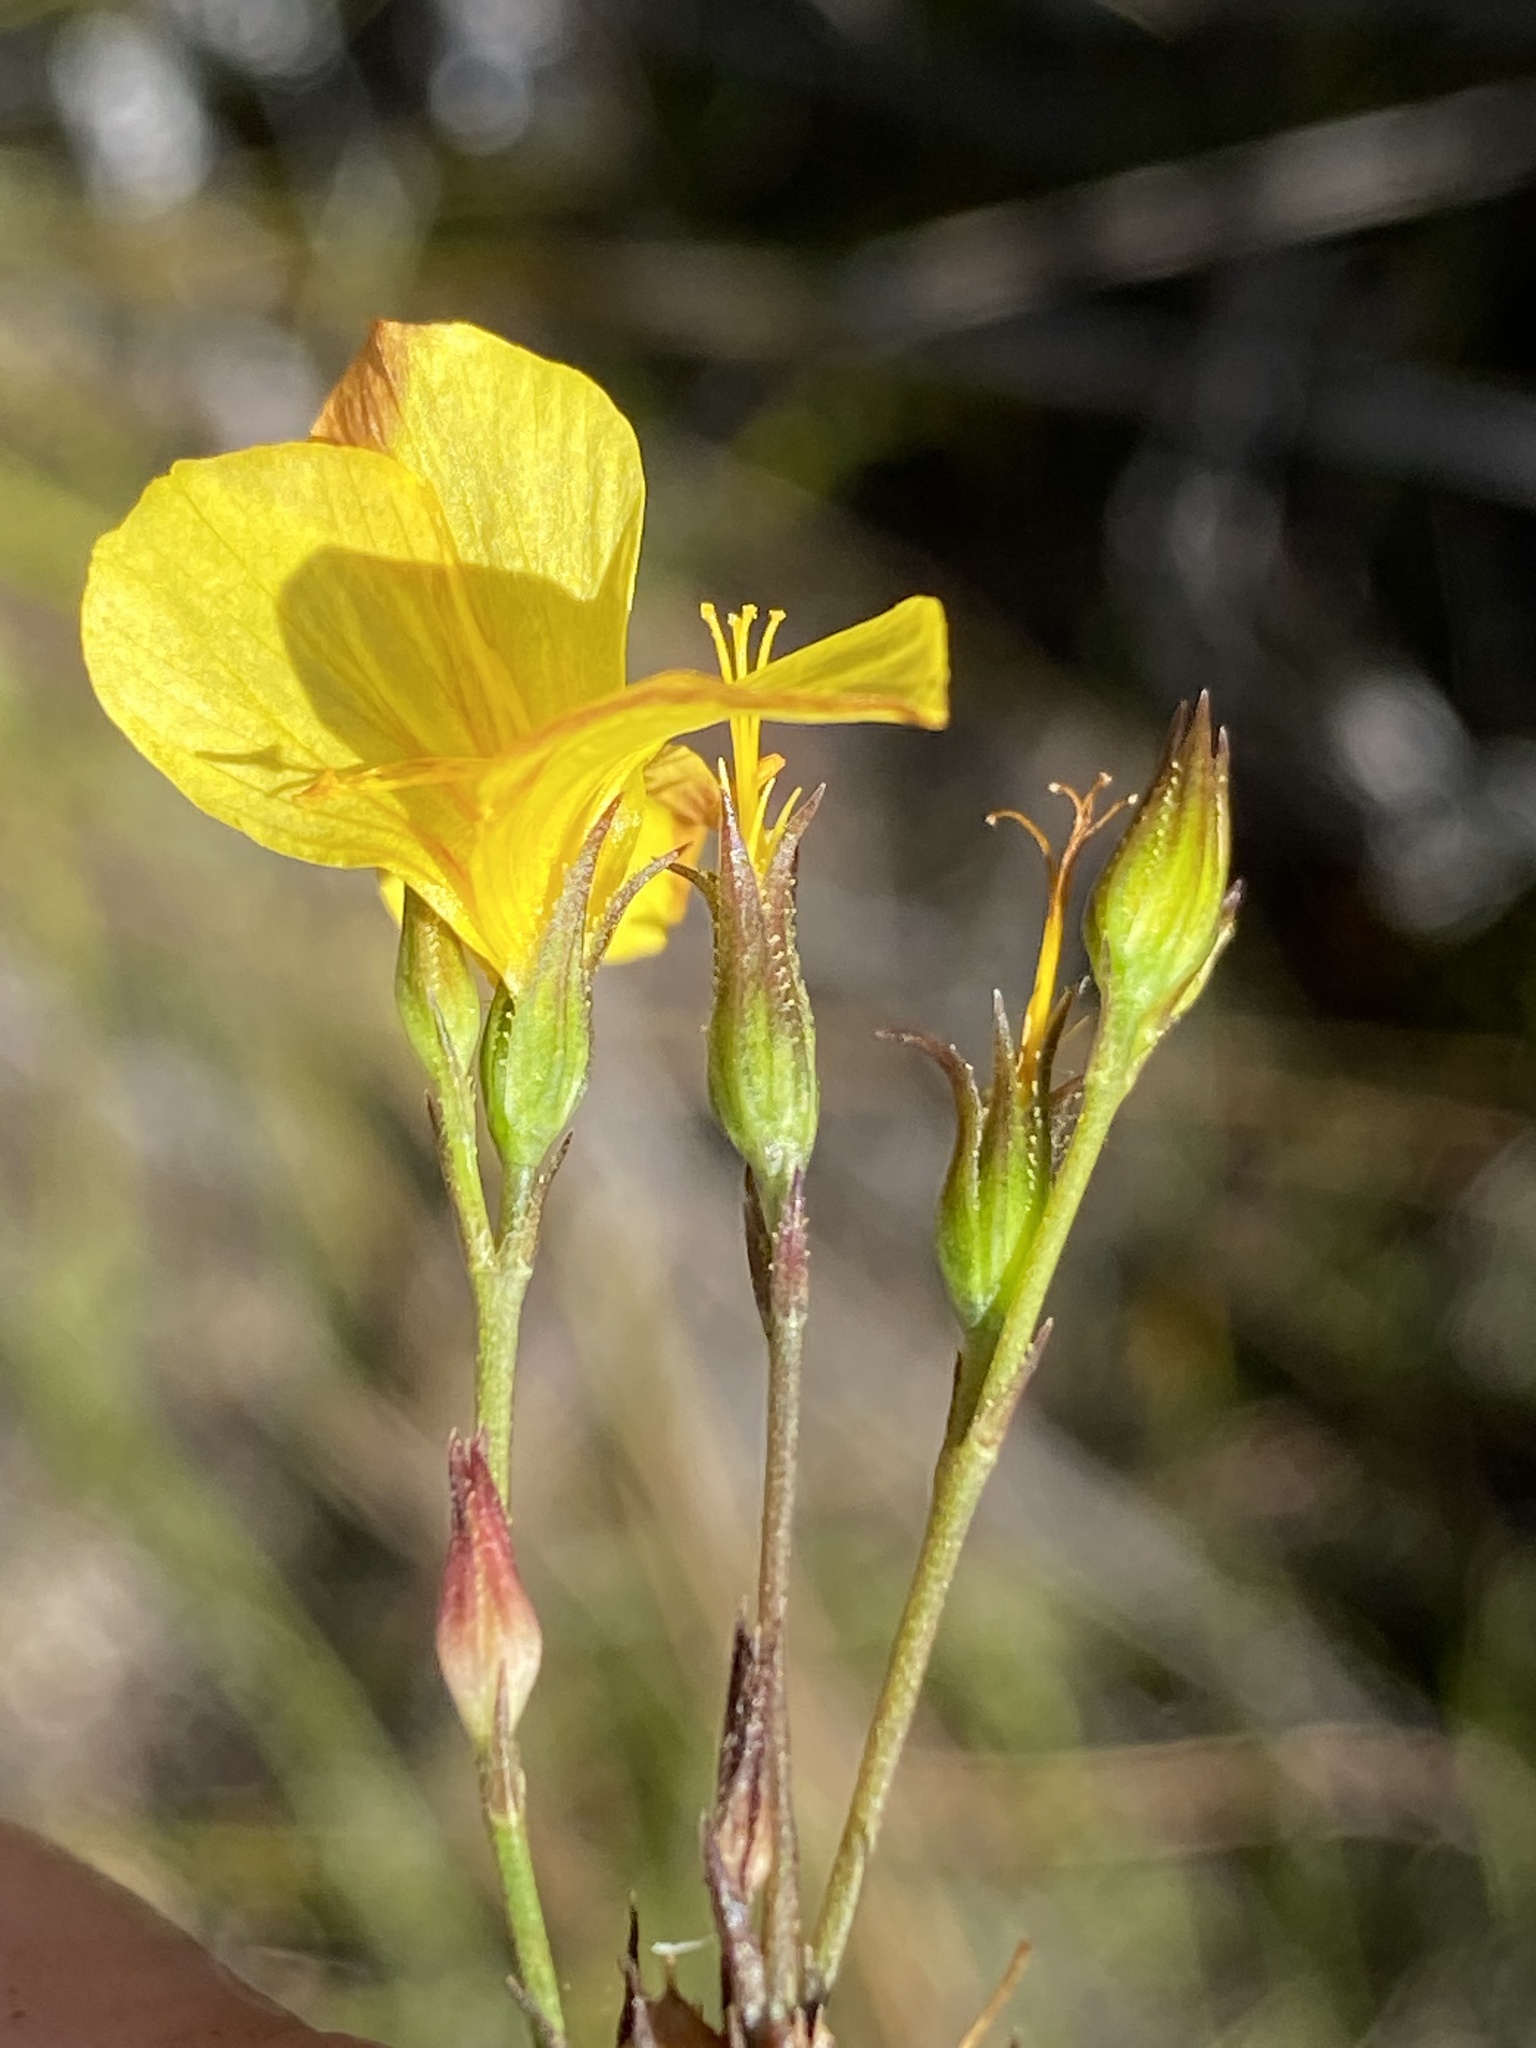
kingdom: Plantae
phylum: Tracheophyta
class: Magnoliopsida
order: Malpighiales
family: Linaceae
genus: Linum
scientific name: Linum africanum
